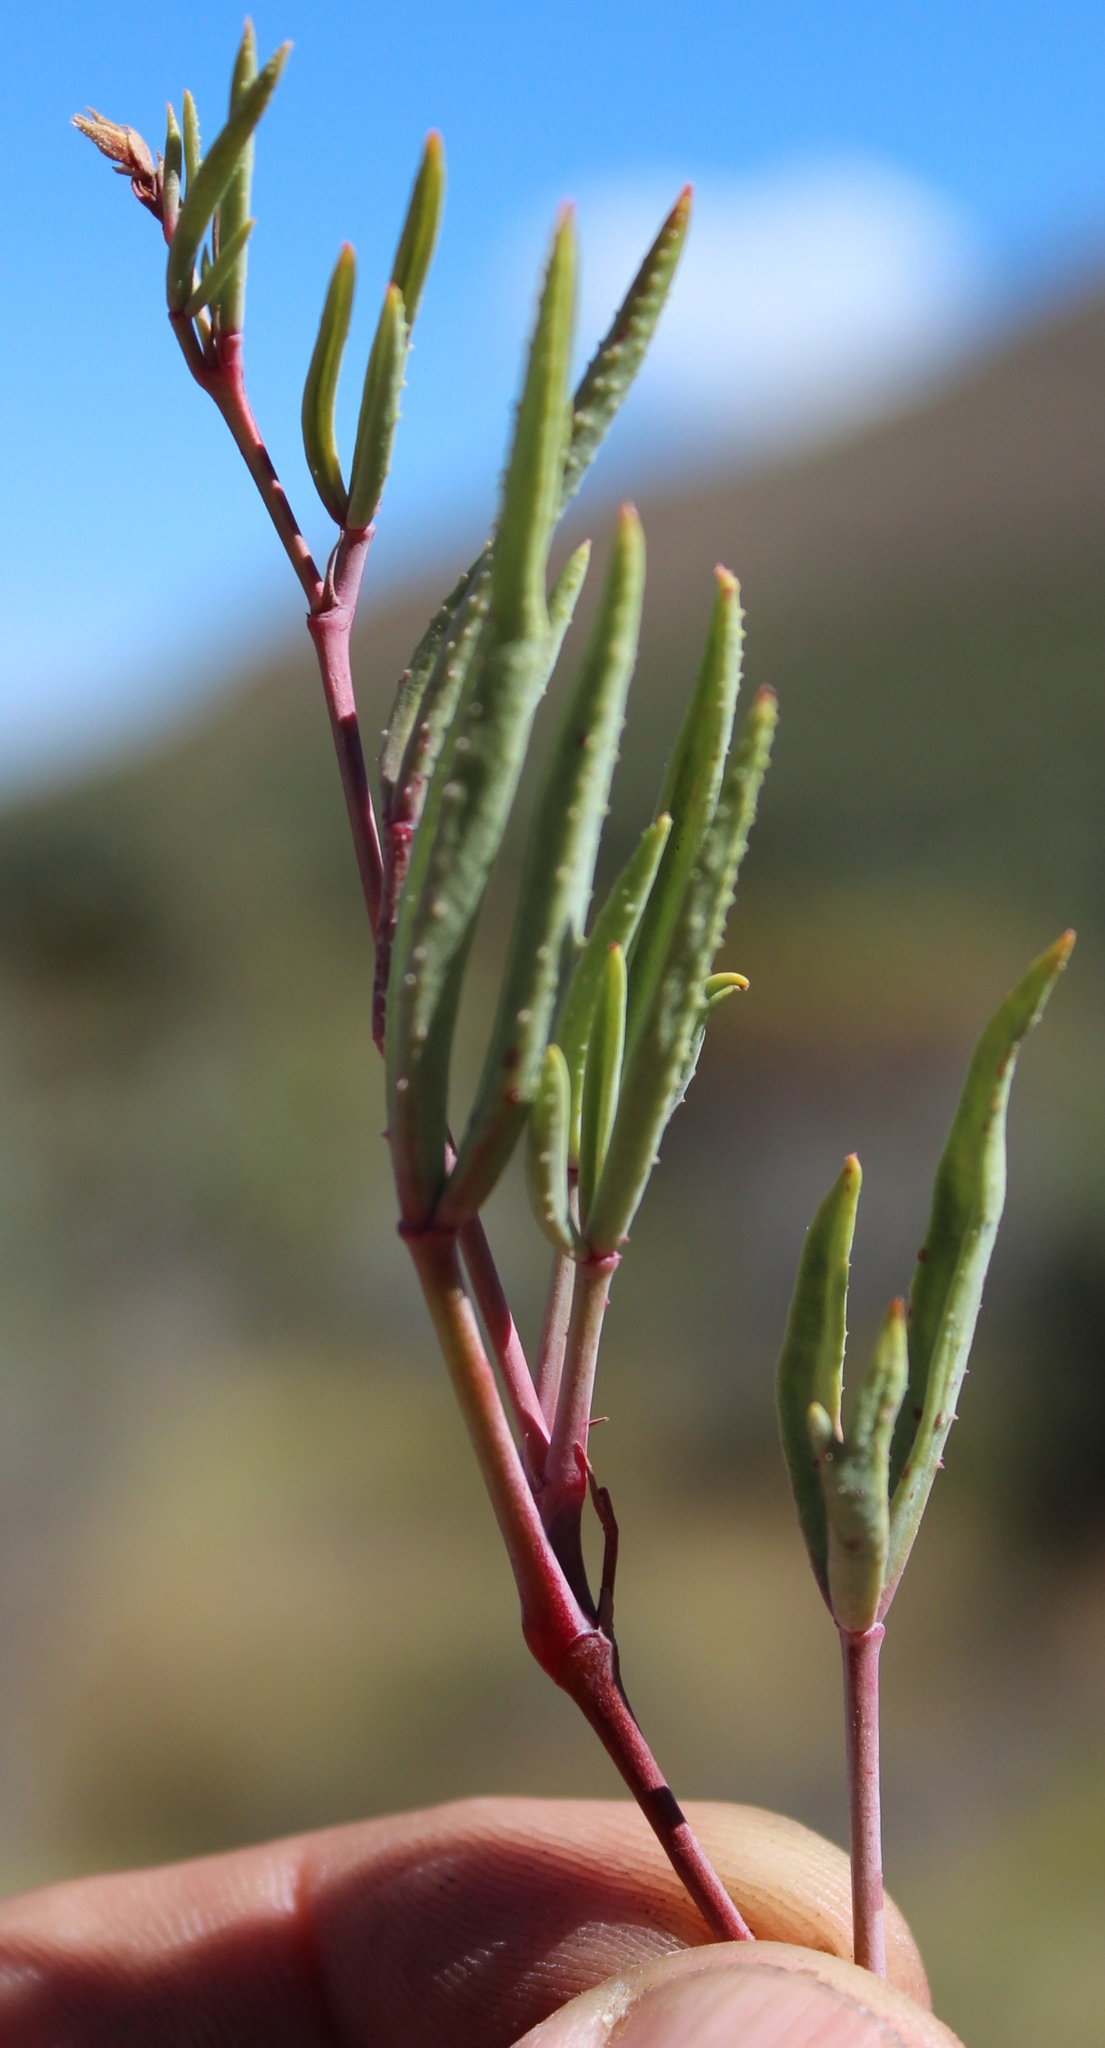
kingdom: Plantae
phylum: Tracheophyta
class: Magnoliopsida
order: Geraniales
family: Geraniaceae
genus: Pelargonium
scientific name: Pelargonium laevigatum
